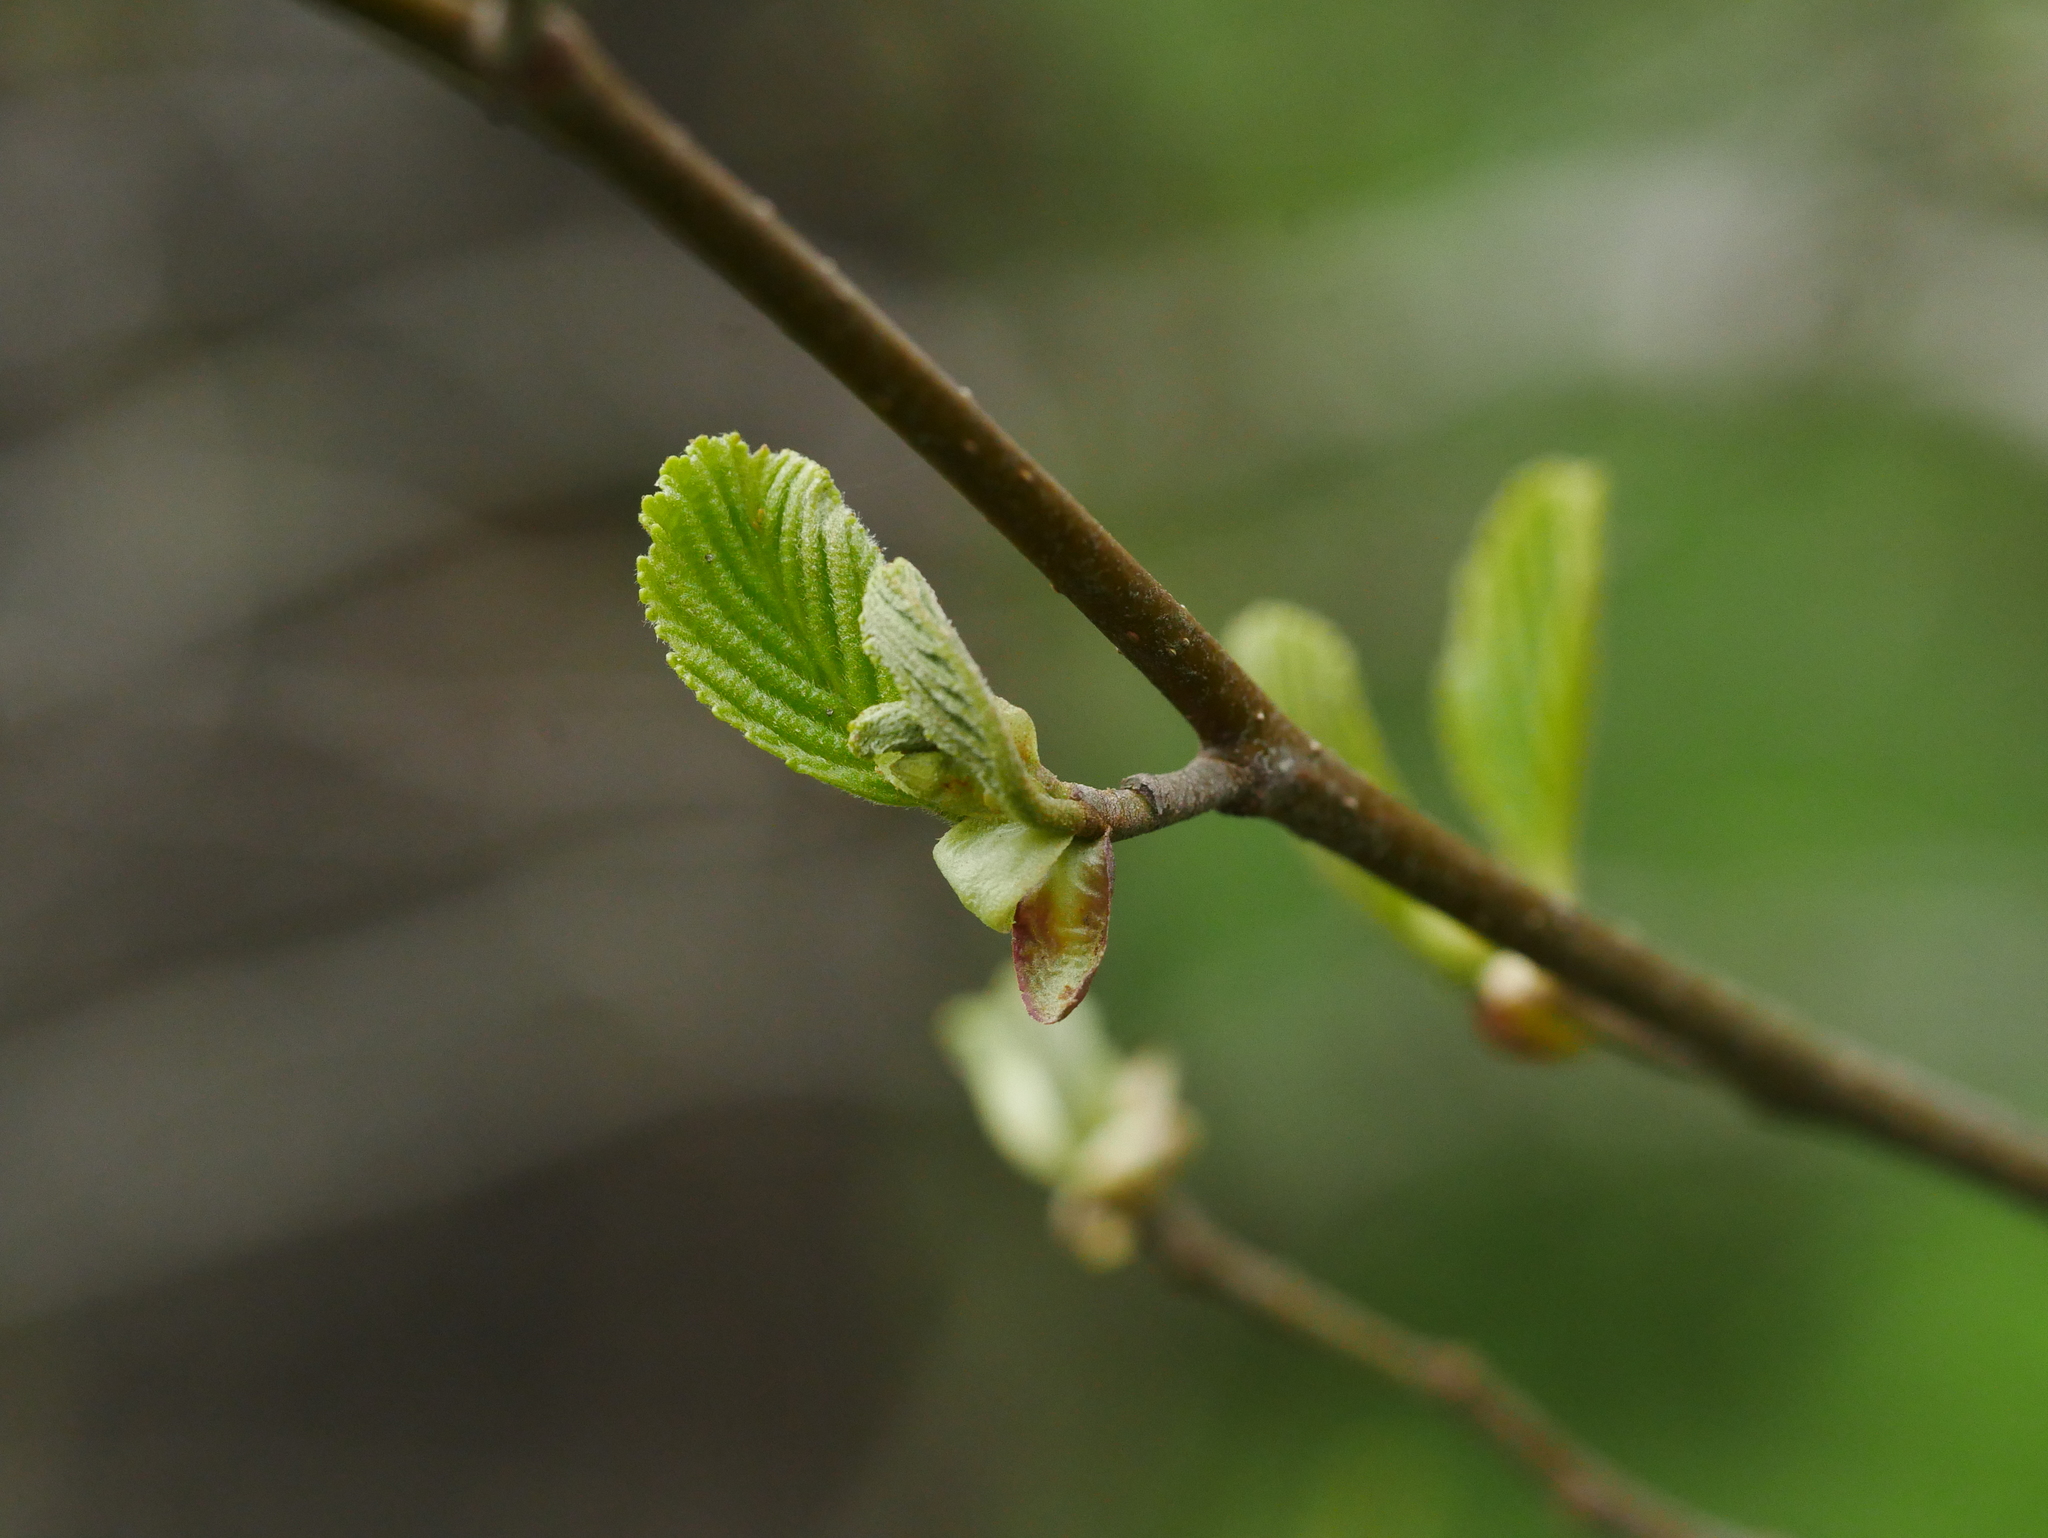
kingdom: Plantae
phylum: Tracheophyta
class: Magnoliopsida
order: Fagales
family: Betulaceae
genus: Alnus
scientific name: Alnus glutinosa
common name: Black alder
